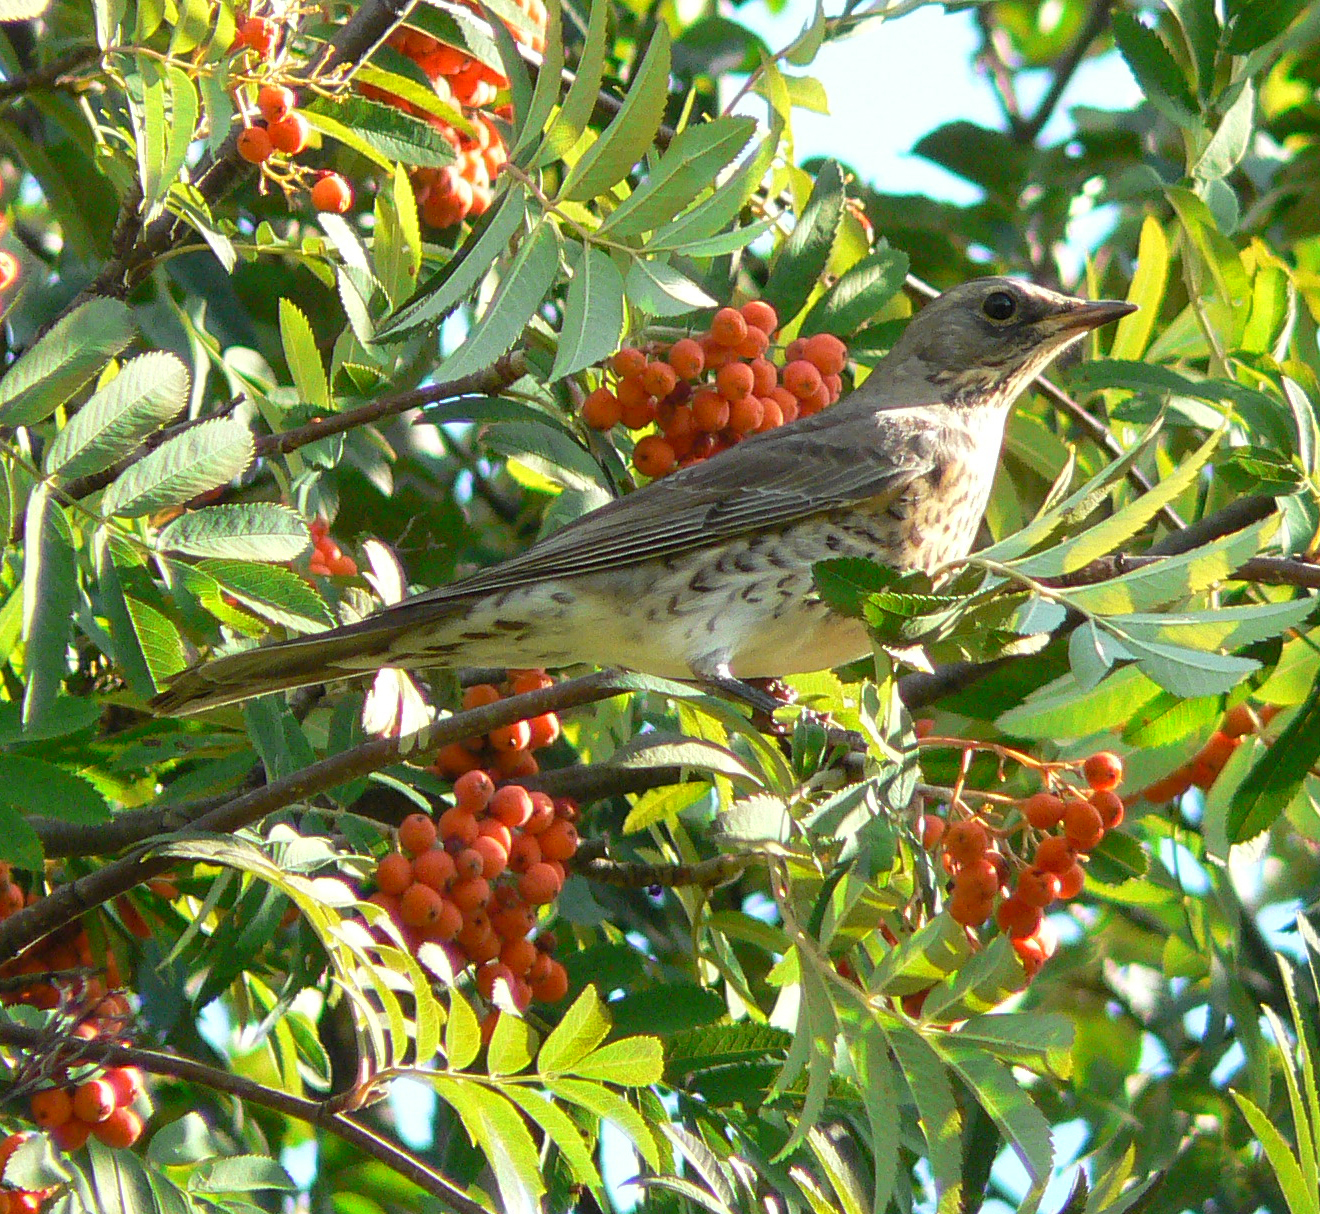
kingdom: Animalia
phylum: Chordata
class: Aves
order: Passeriformes
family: Turdidae
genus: Turdus
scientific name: Turdus pilaris
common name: Fieldfare
